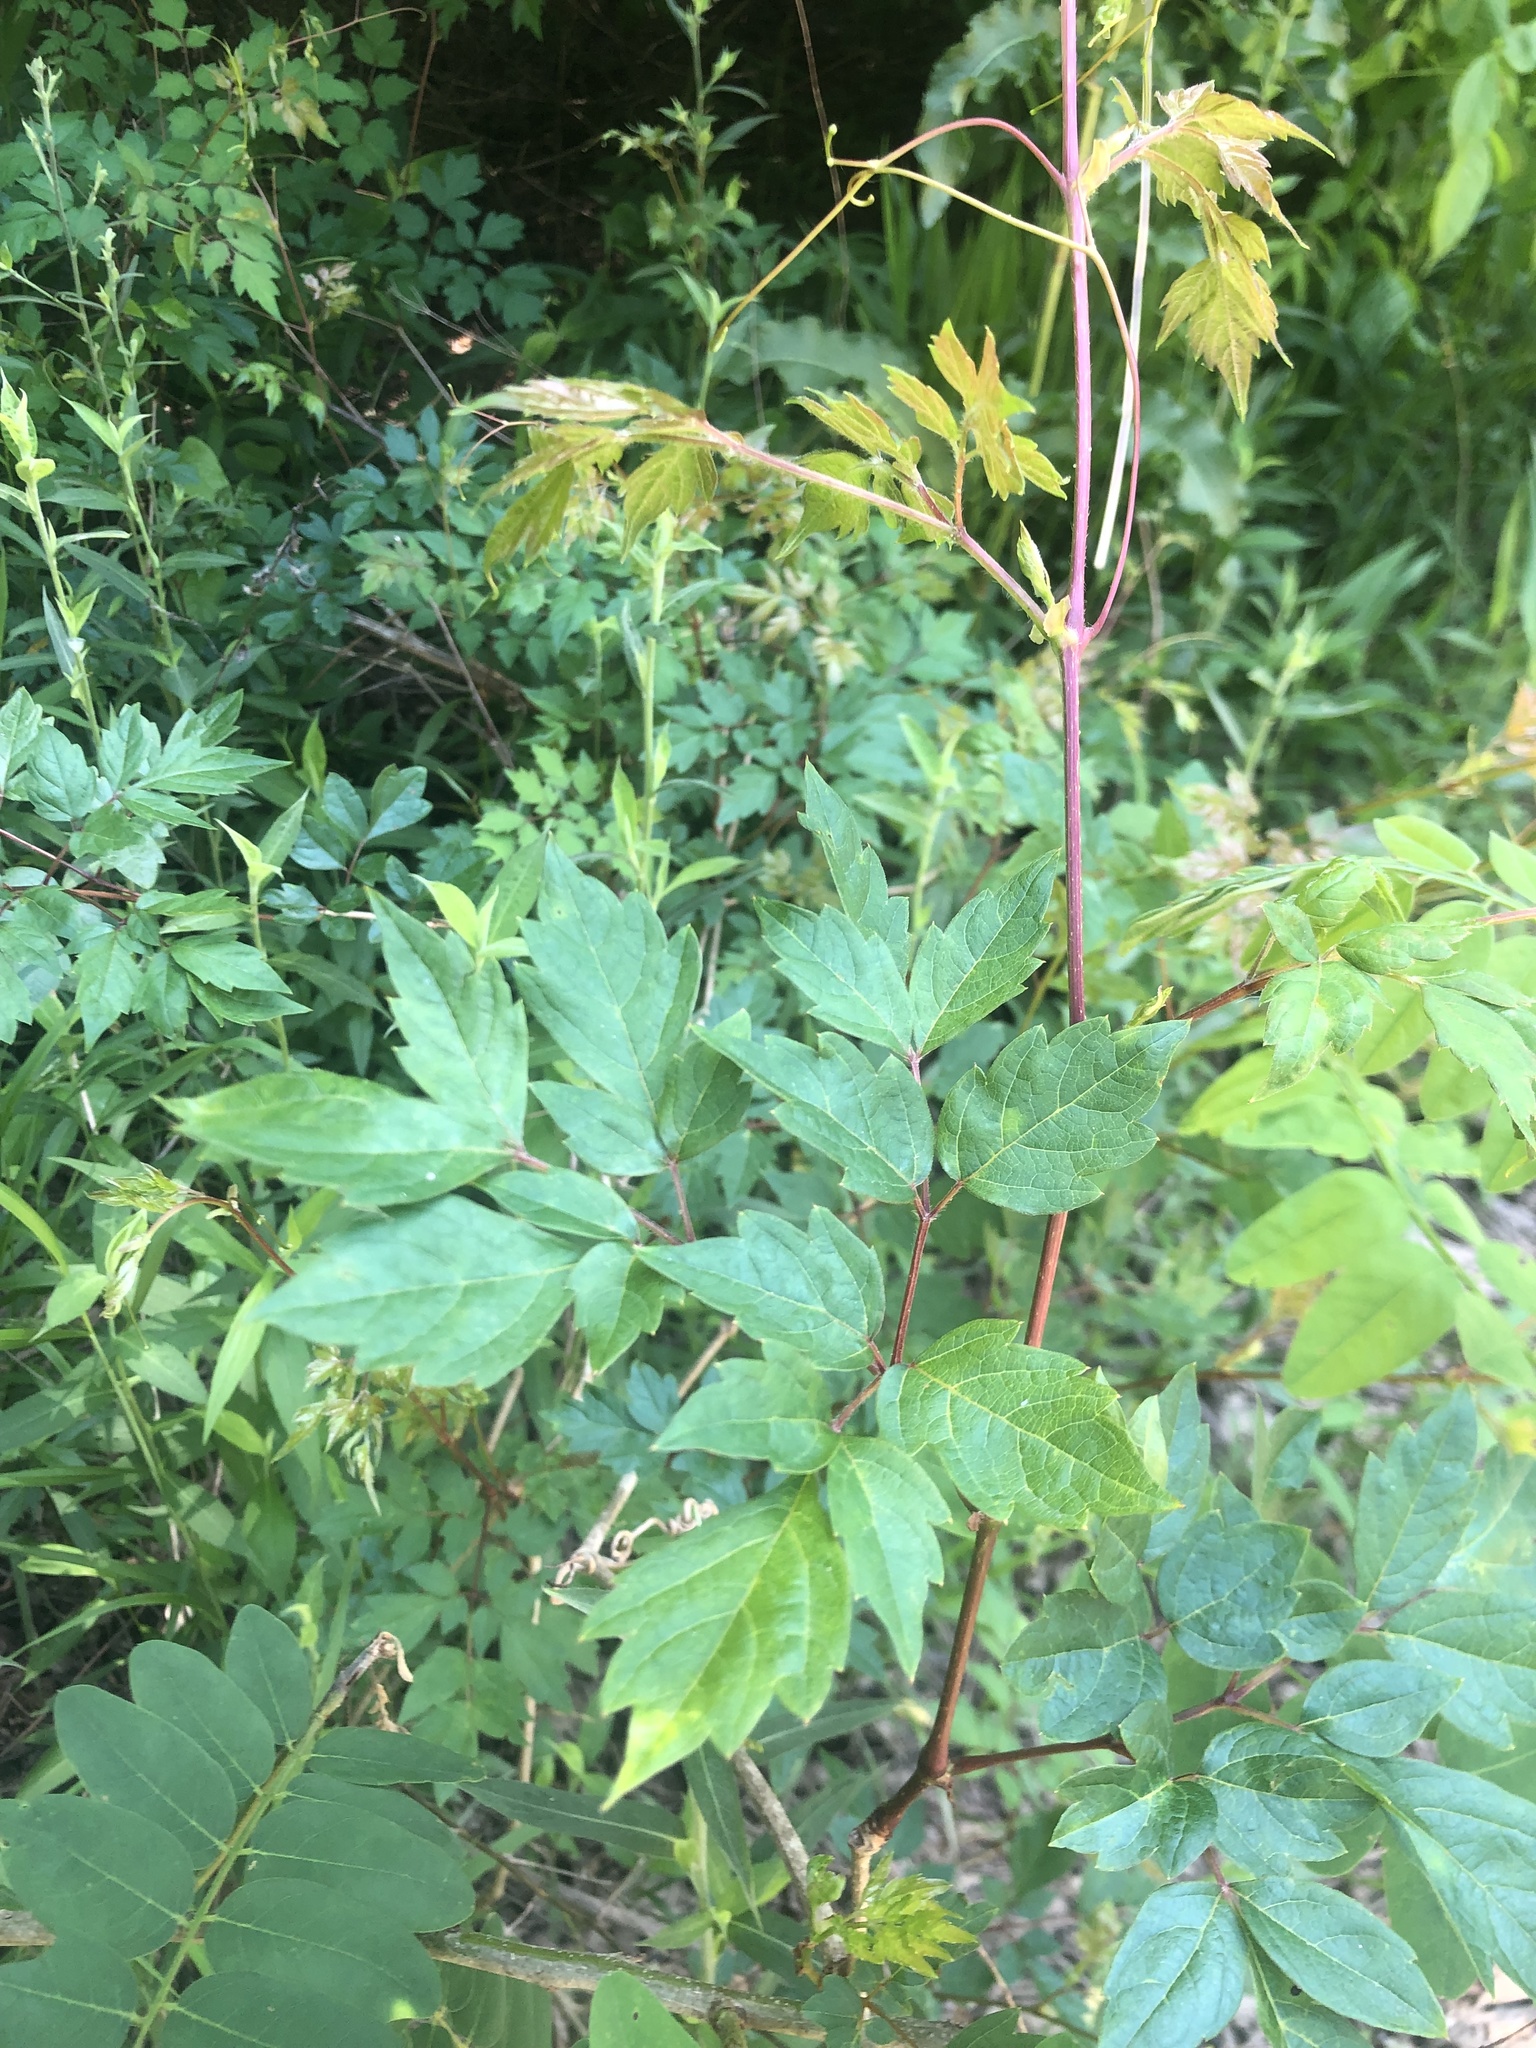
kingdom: Plantae
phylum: Tracheophyta
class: Magnoliopsida
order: Vitales
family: Vitaceae
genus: Nekemias
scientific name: Nekemias arborea
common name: Peppervine
